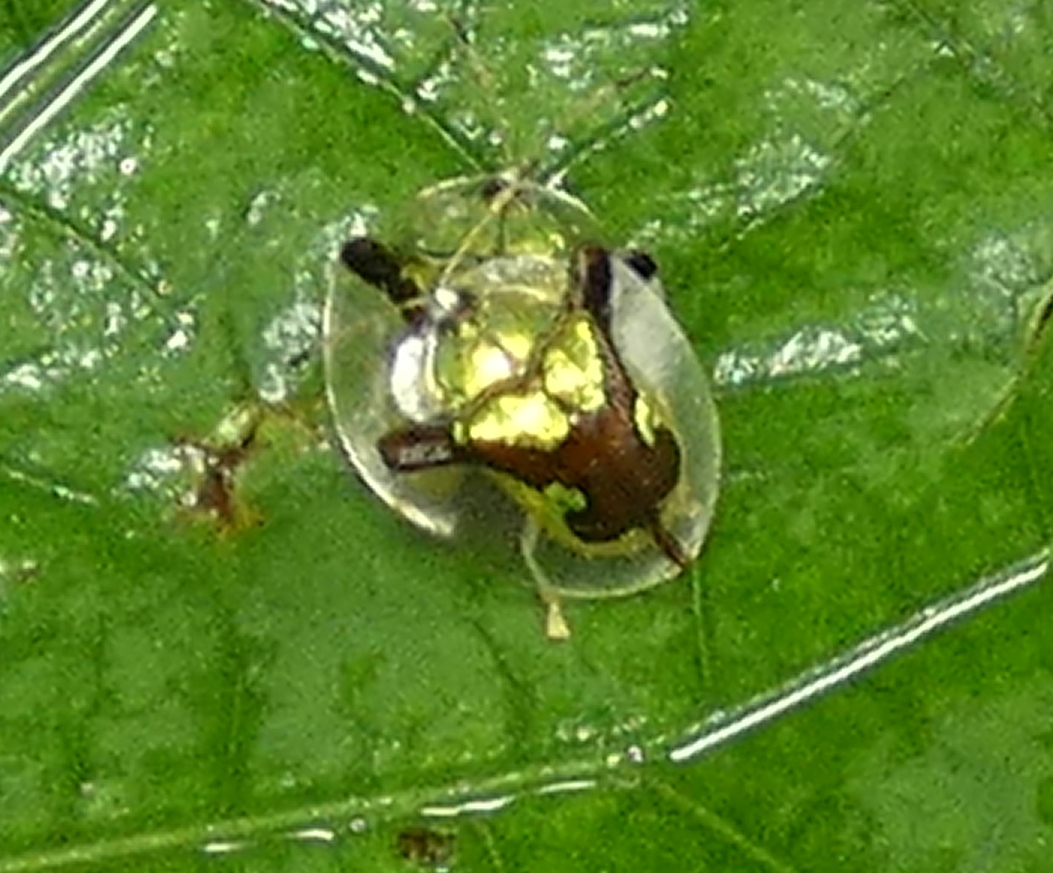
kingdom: Animalia
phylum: Arthropoda
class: Insecta
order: Coleoptera
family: Chrysomelidae
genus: Deloyala
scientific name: Deloyala cruciata
